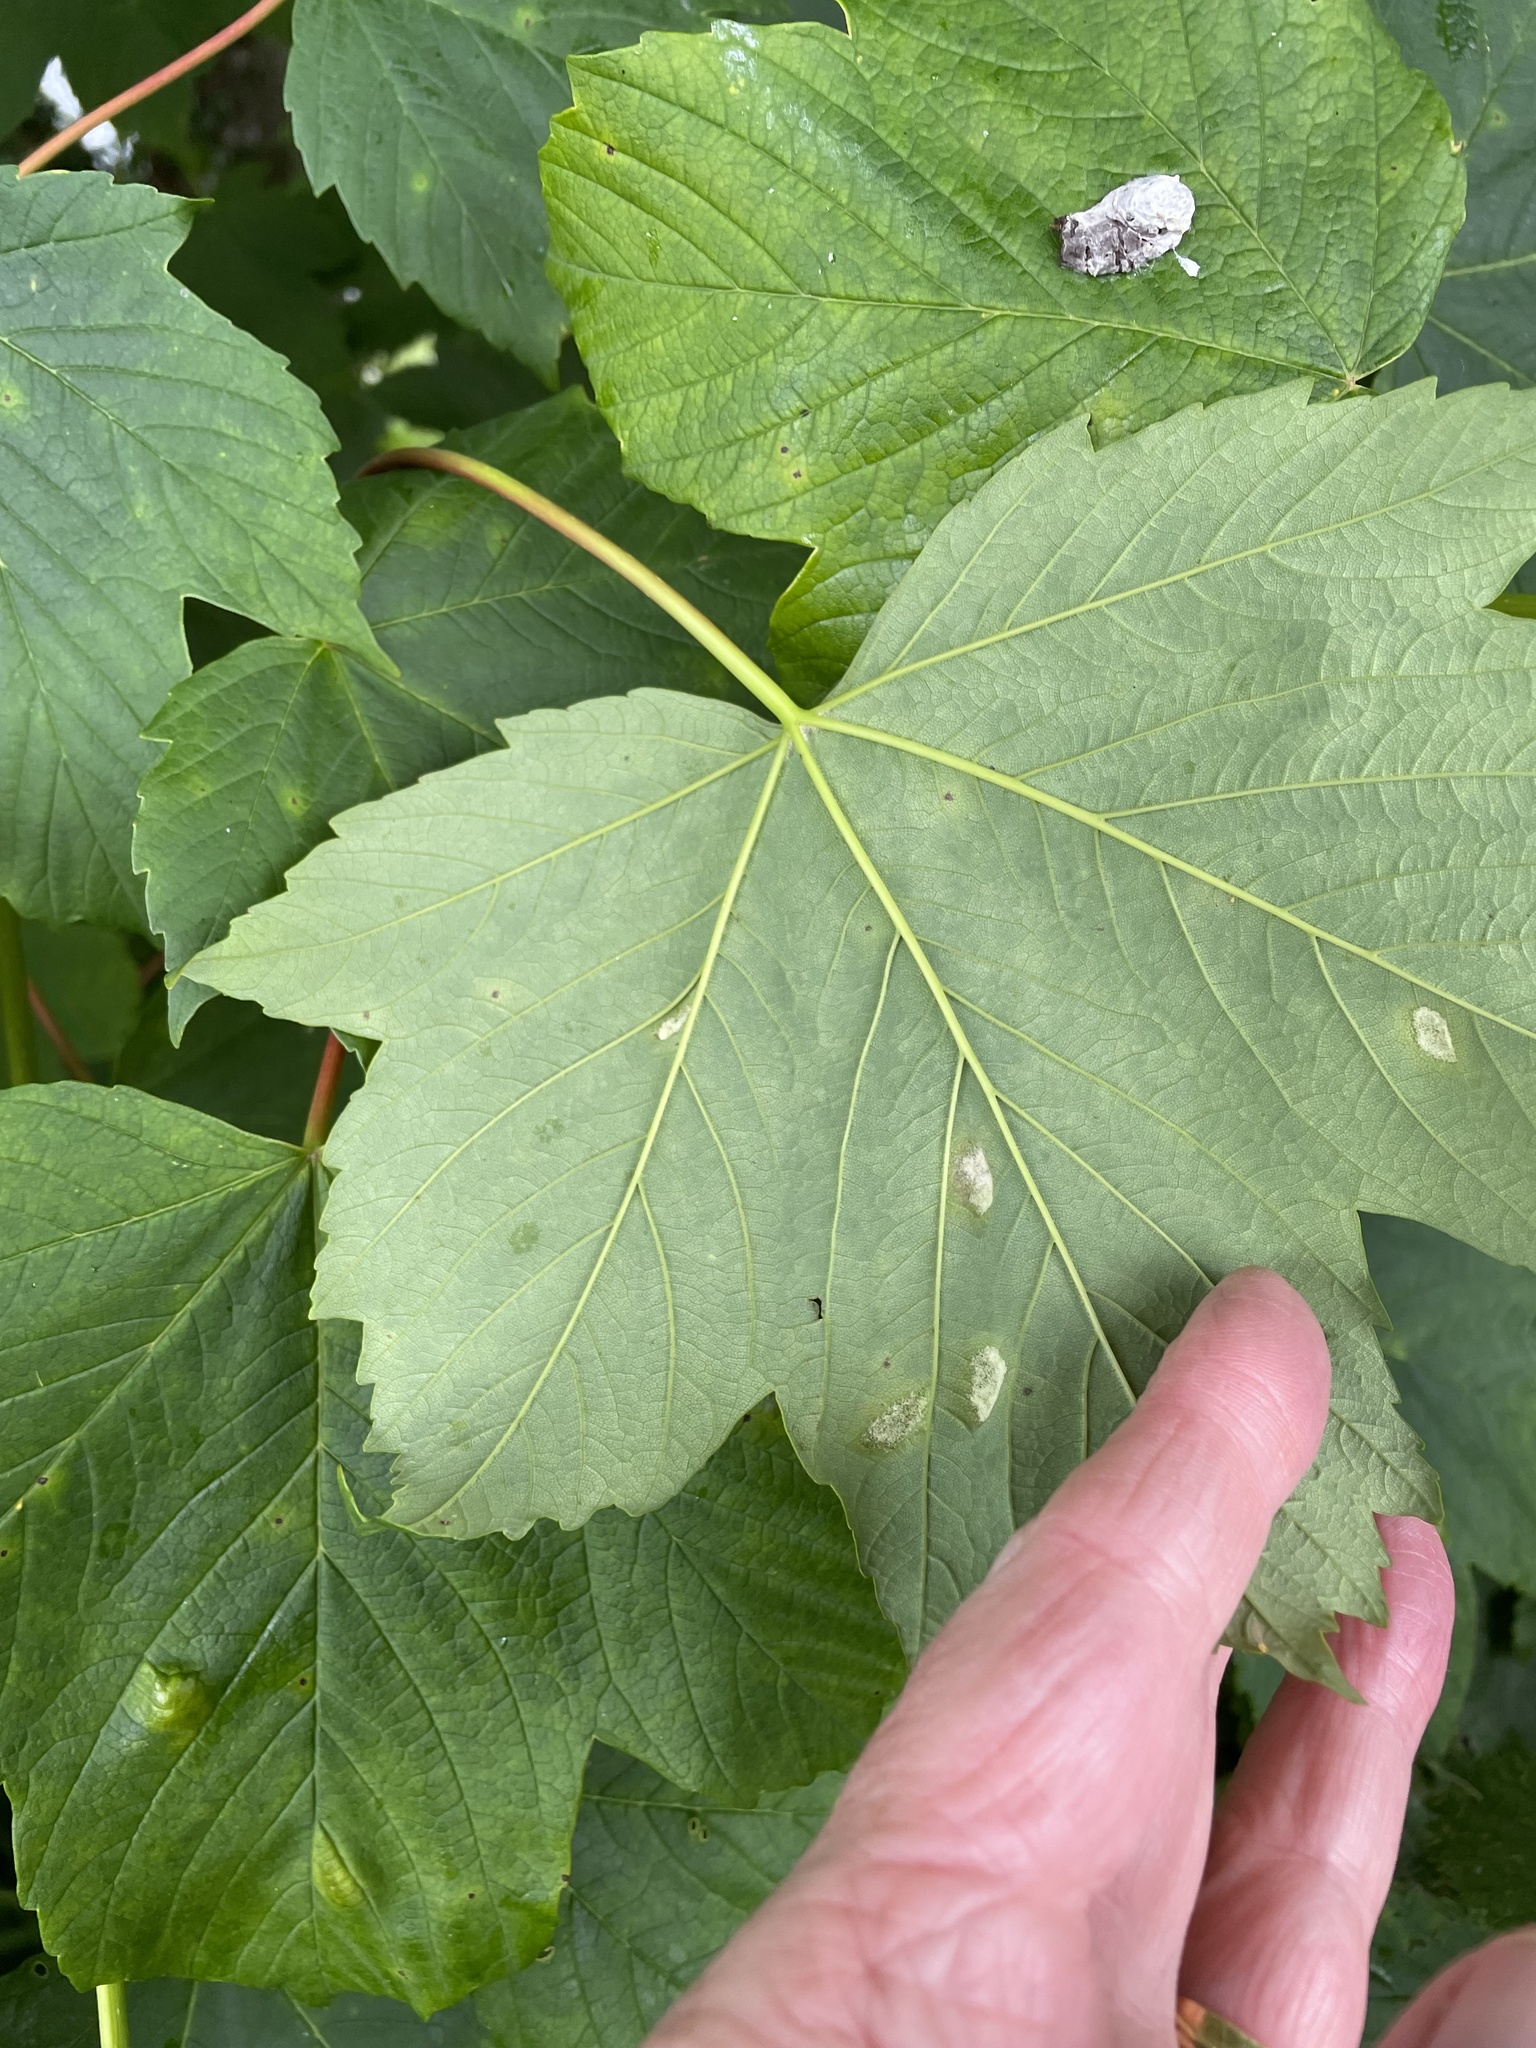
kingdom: Animalia
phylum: Arthropoda
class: Arachnida
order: Trombidiformes
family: Eriophyidae
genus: Aceria
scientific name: Aceria pseudoplatani
